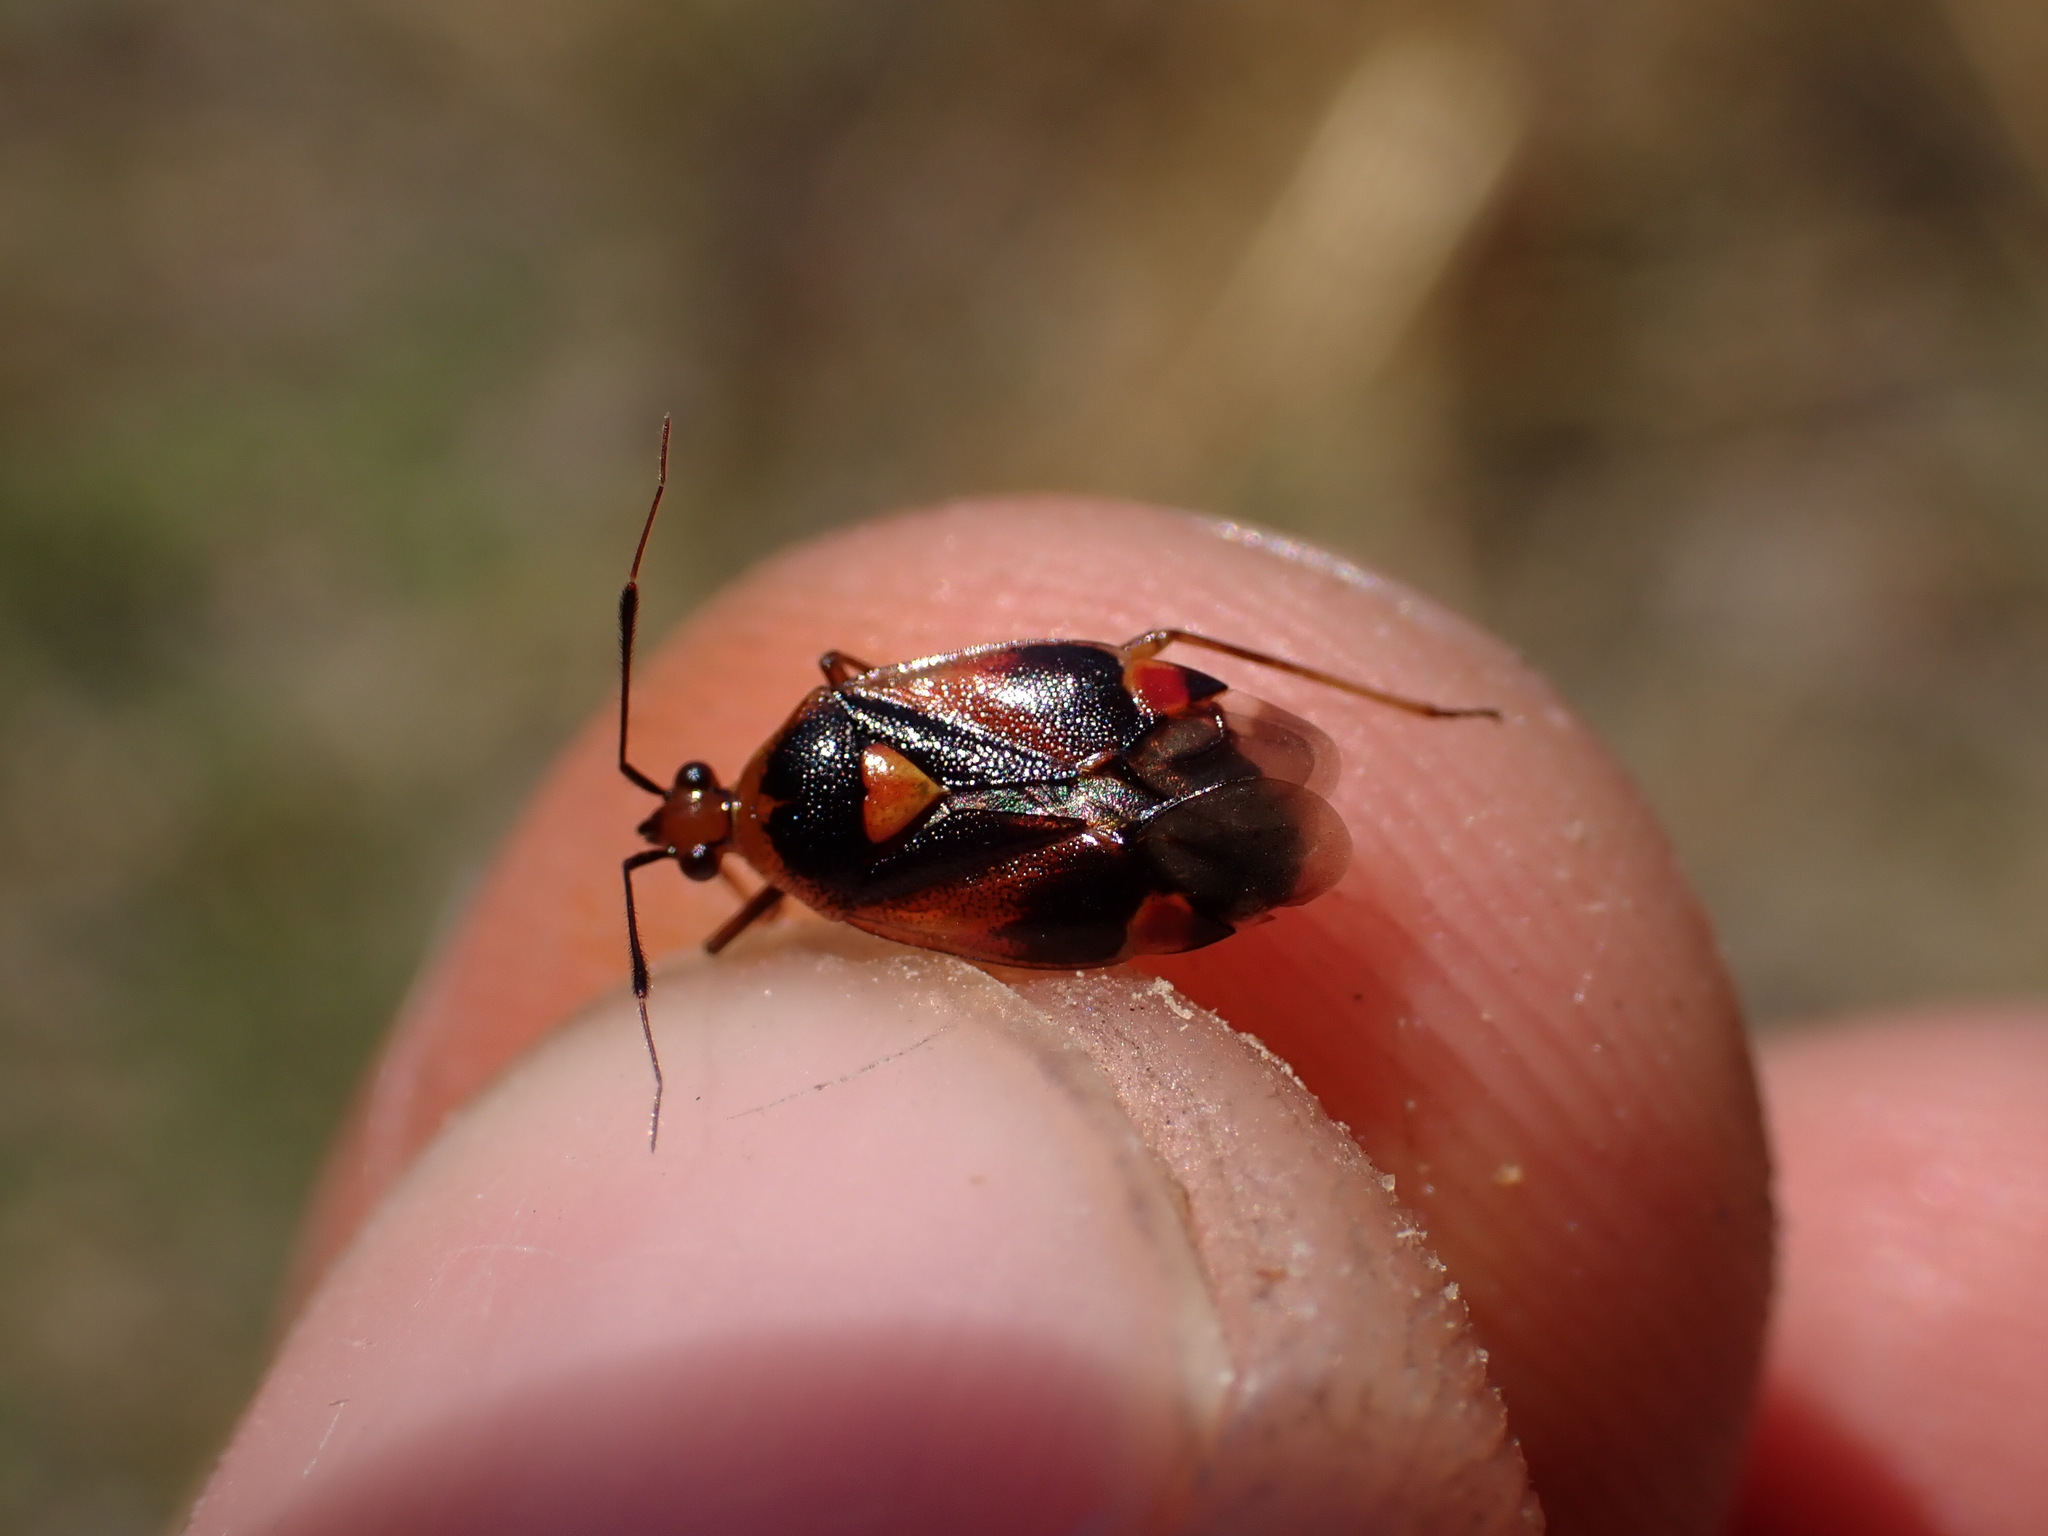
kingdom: Animalia
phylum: Arthropoda
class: Insecta
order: Hemiptera
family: Miridae
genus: Deraeocoris
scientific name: Deraeocoris ruber
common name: Plant bug
